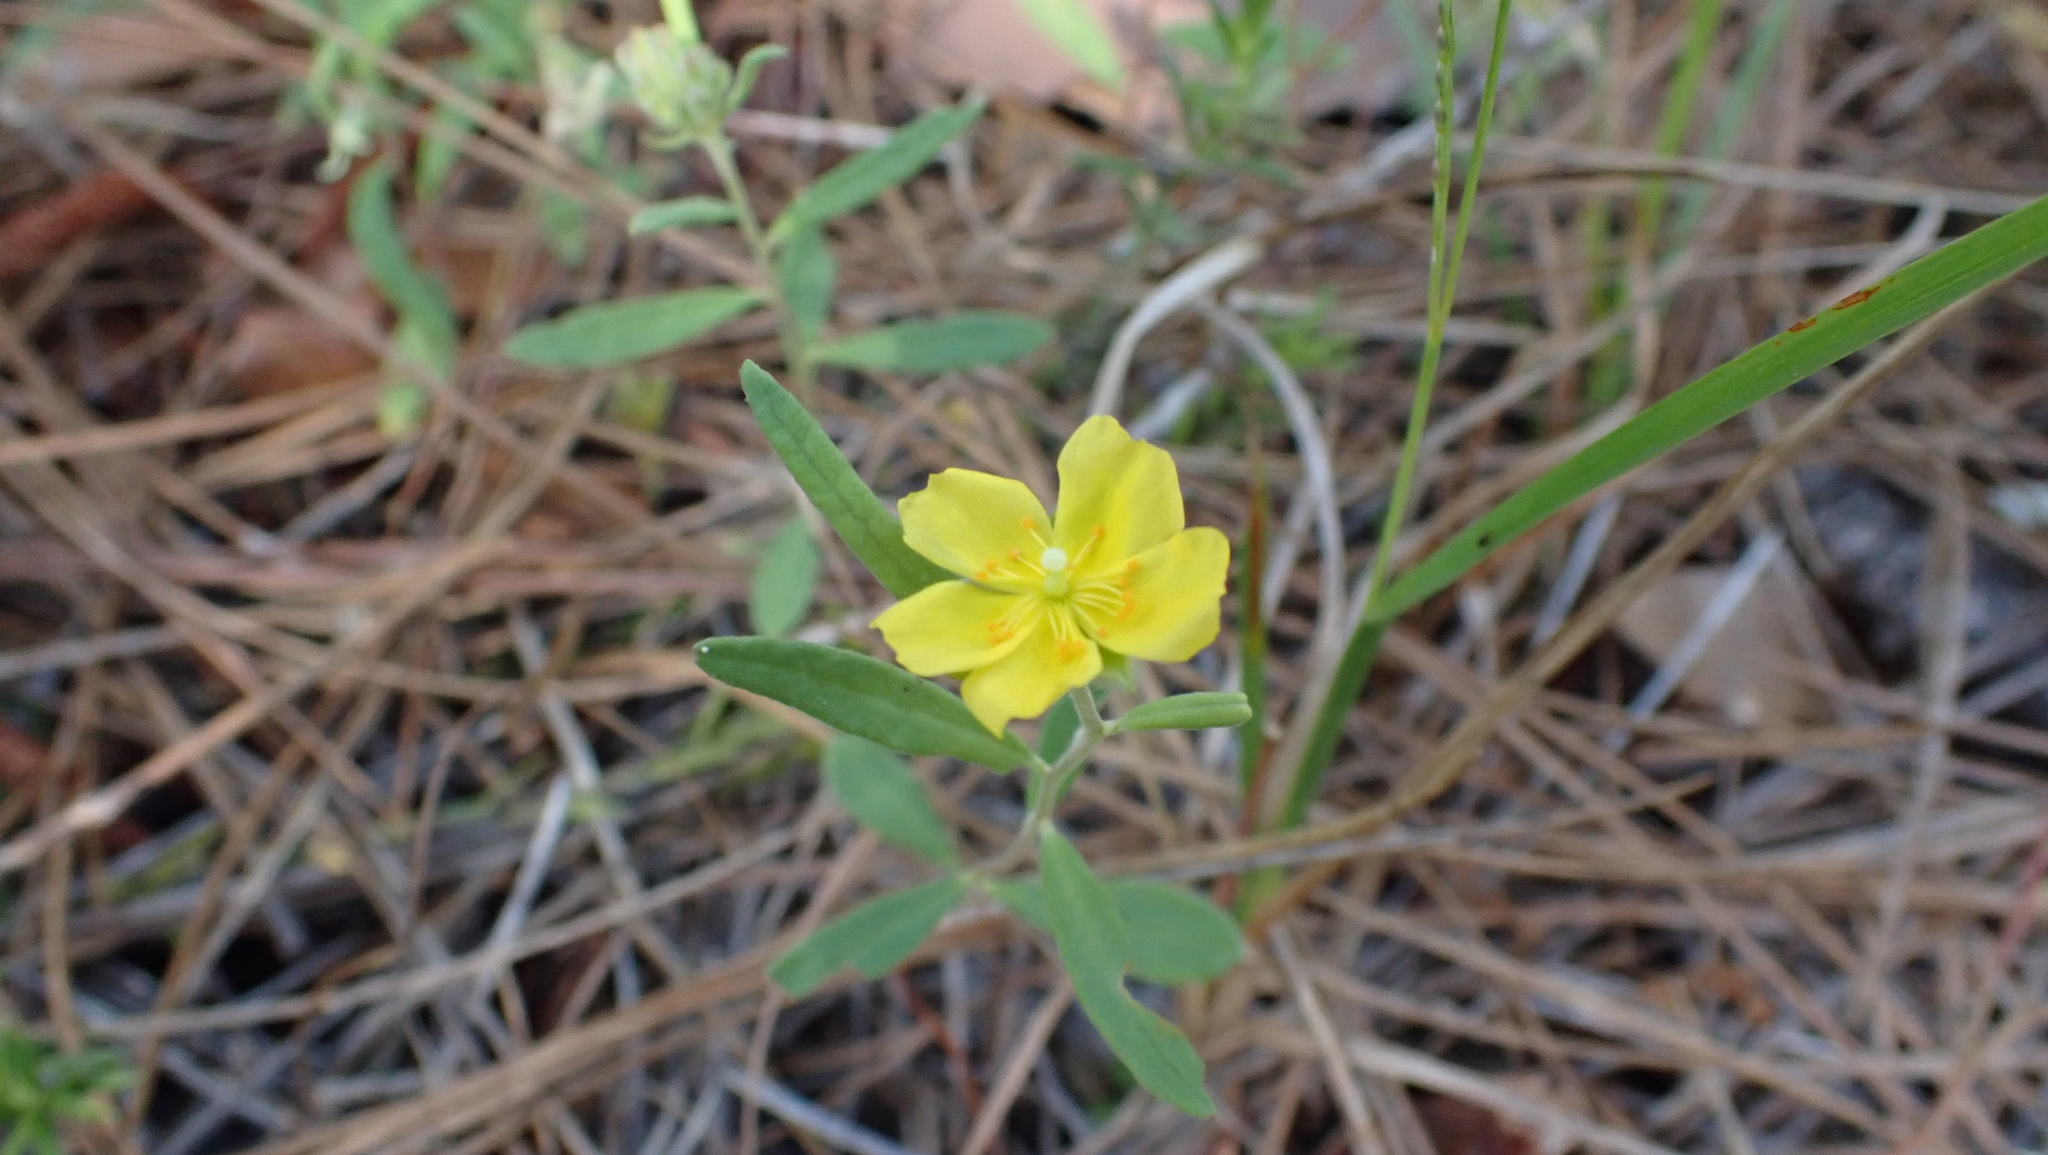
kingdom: Plantae
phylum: Tracheophyta
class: Magnoliopsida
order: Malvales
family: Cistaceae
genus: Crocanthemum
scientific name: Crocanthemum corymbosum
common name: Pinebarren sun-rose
